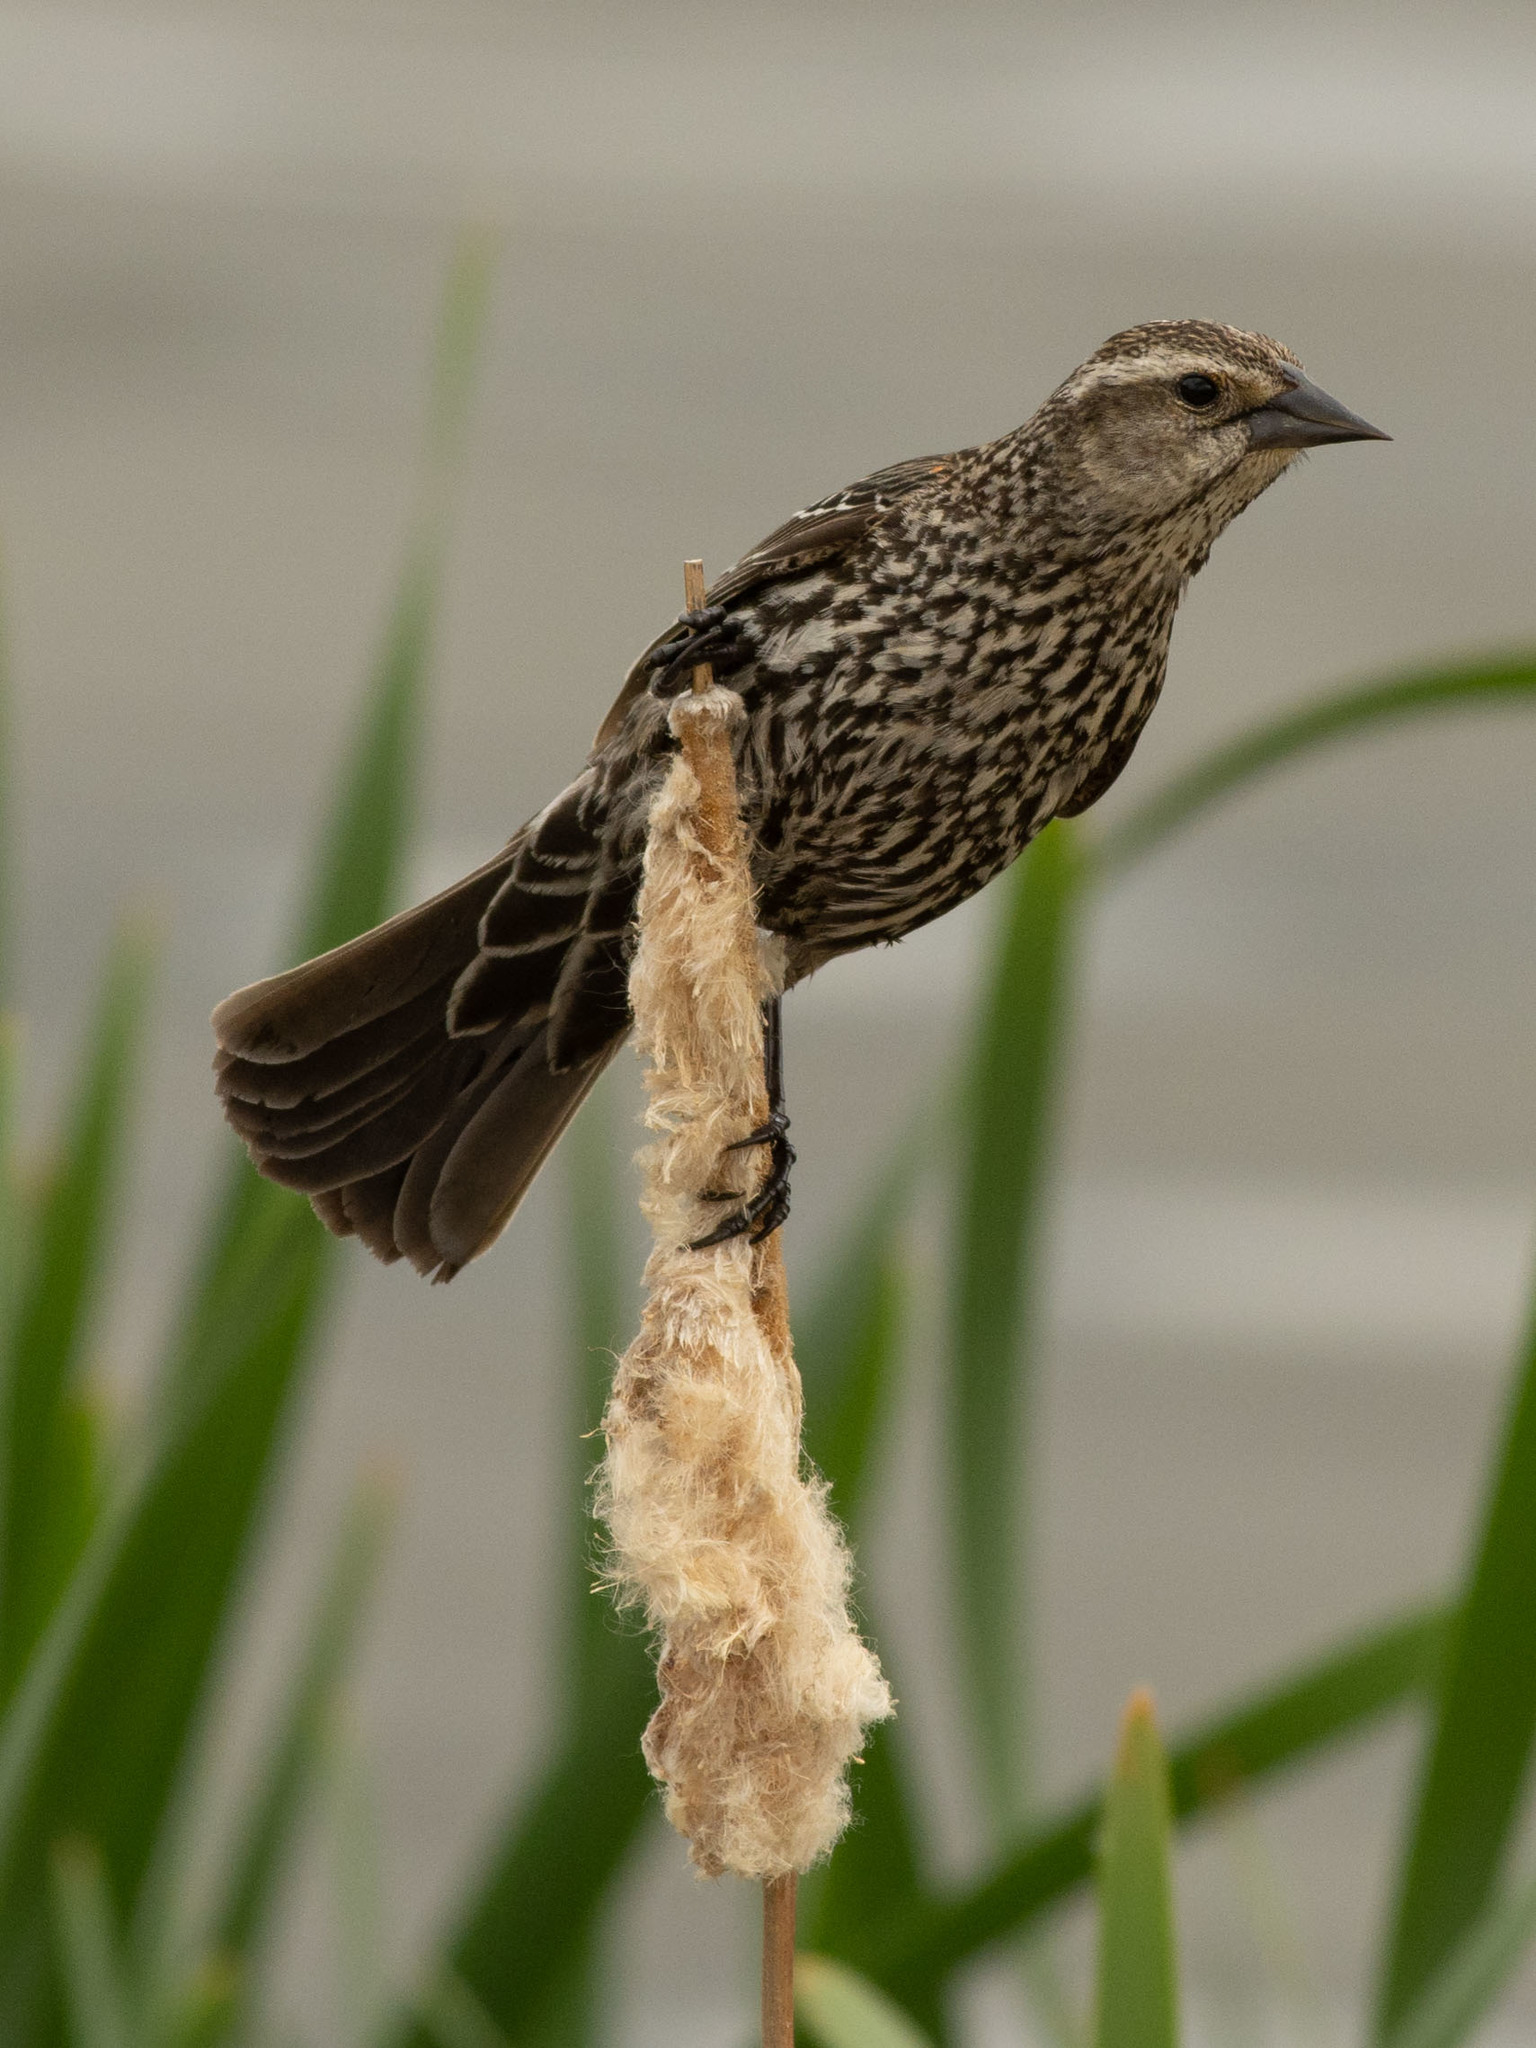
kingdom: Animalia
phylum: Chordata
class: Aves
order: Passeriformes
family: Icteridae
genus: Agelaius
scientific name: Agelaius phoeniceus
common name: Red-winged blackbird
